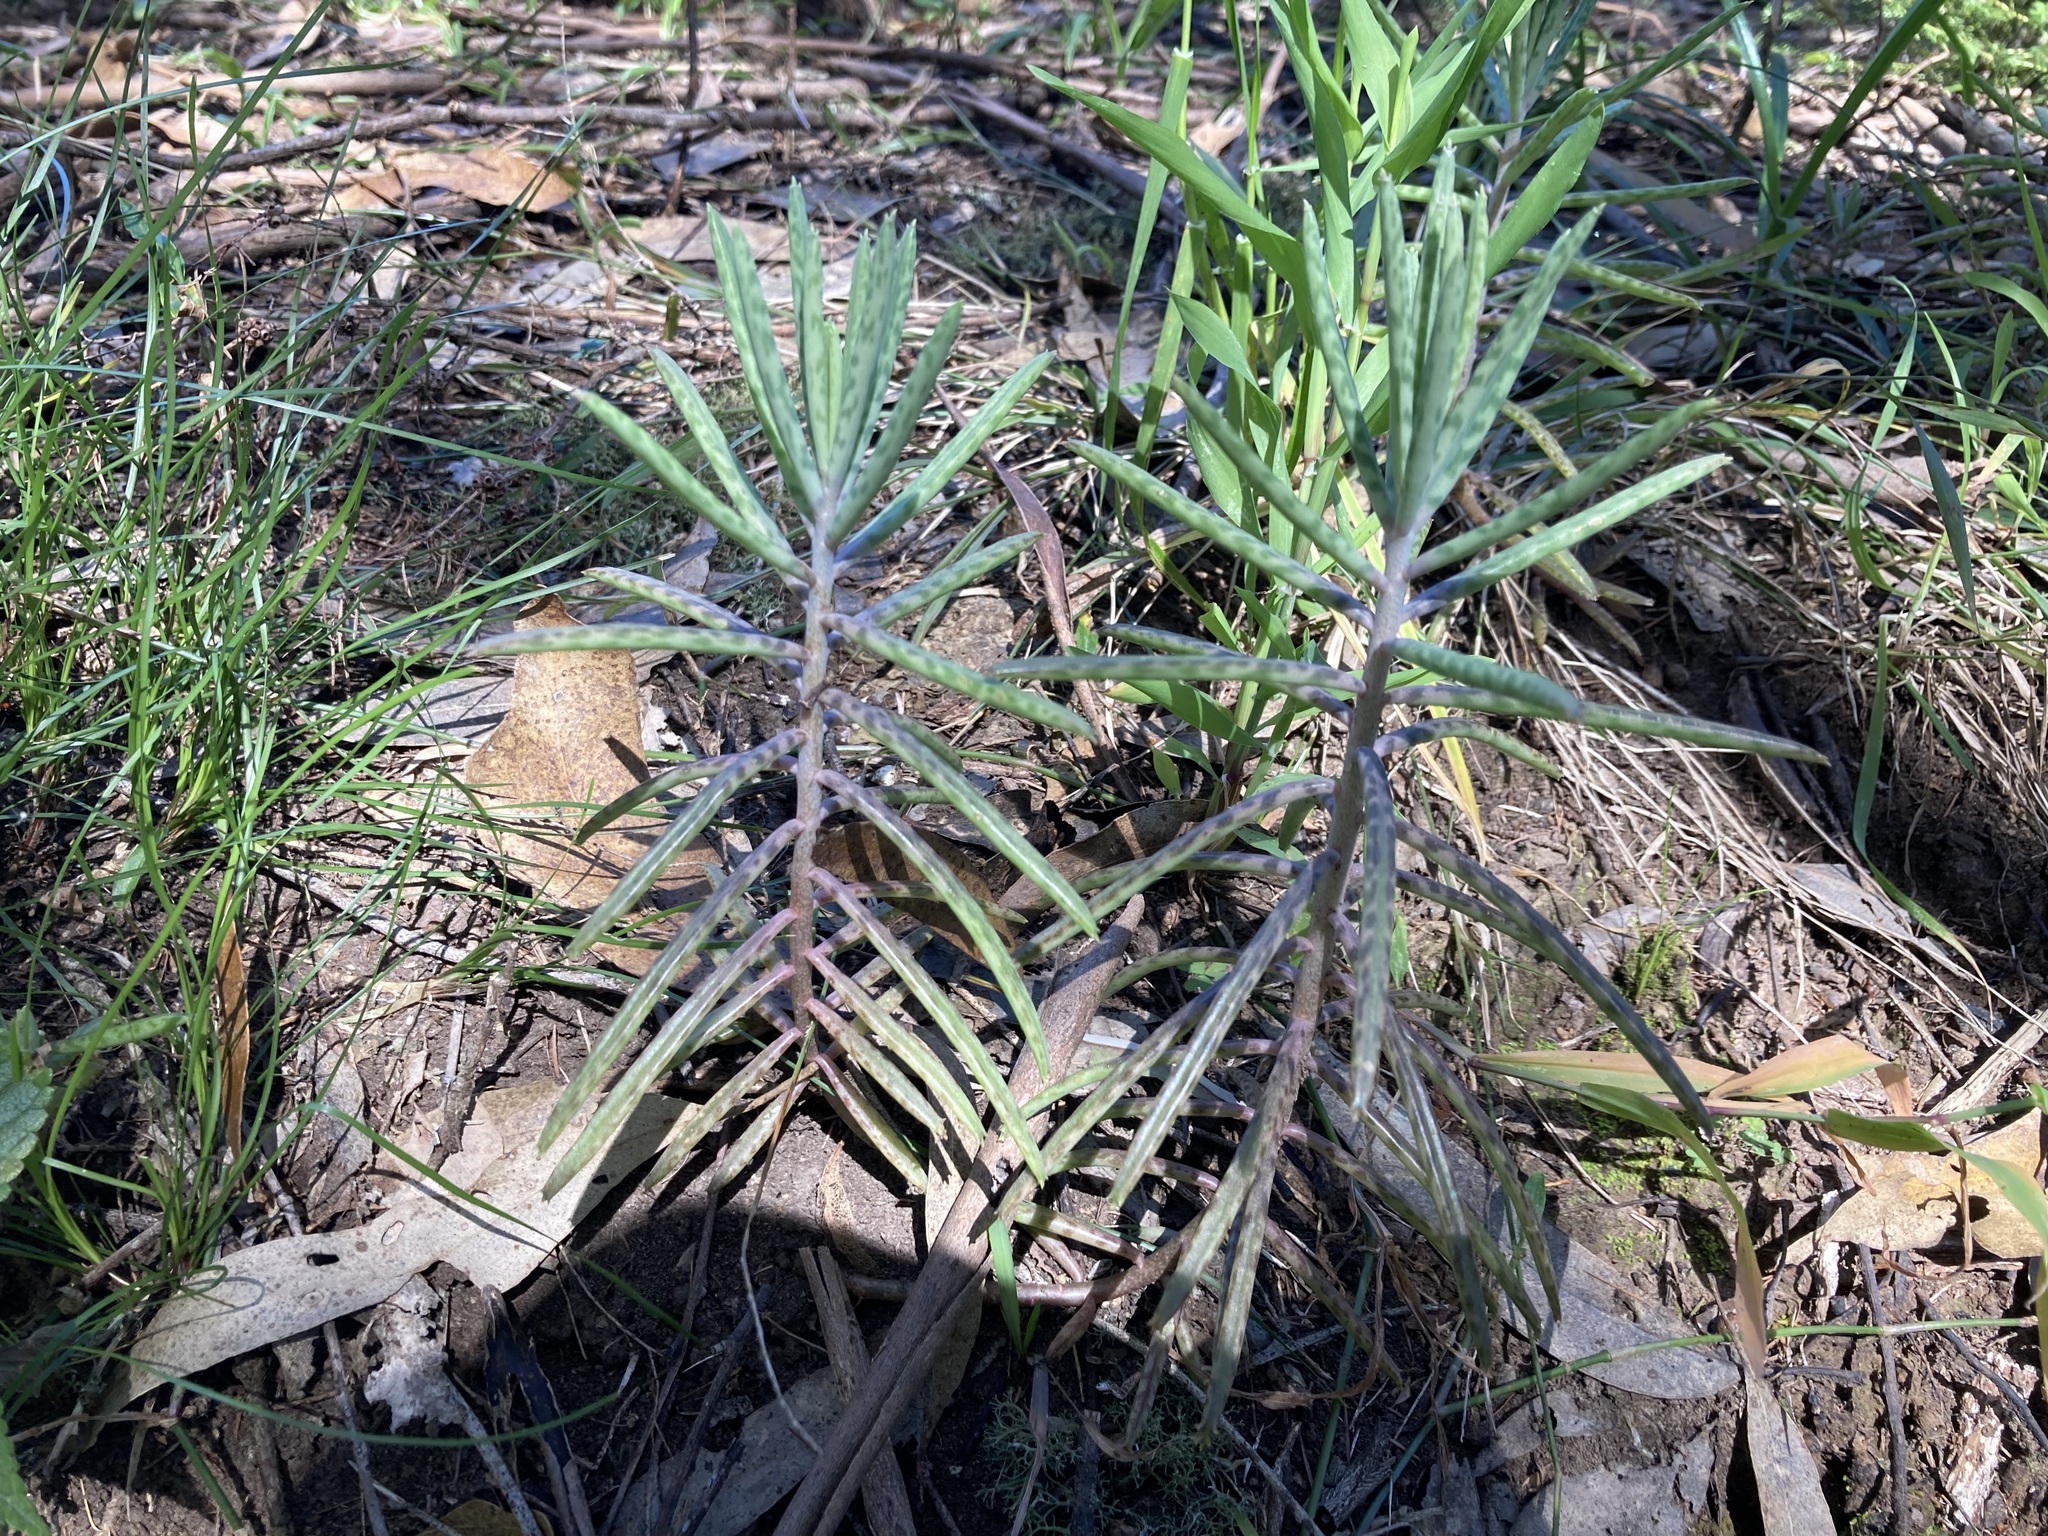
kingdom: Plantae
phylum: Tracheophyta
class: Magnoliopsida
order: Saxifragales
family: Crassulaceae
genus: Kalanchoe
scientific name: Kalanchoe delagoensis
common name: Chandelier plant
